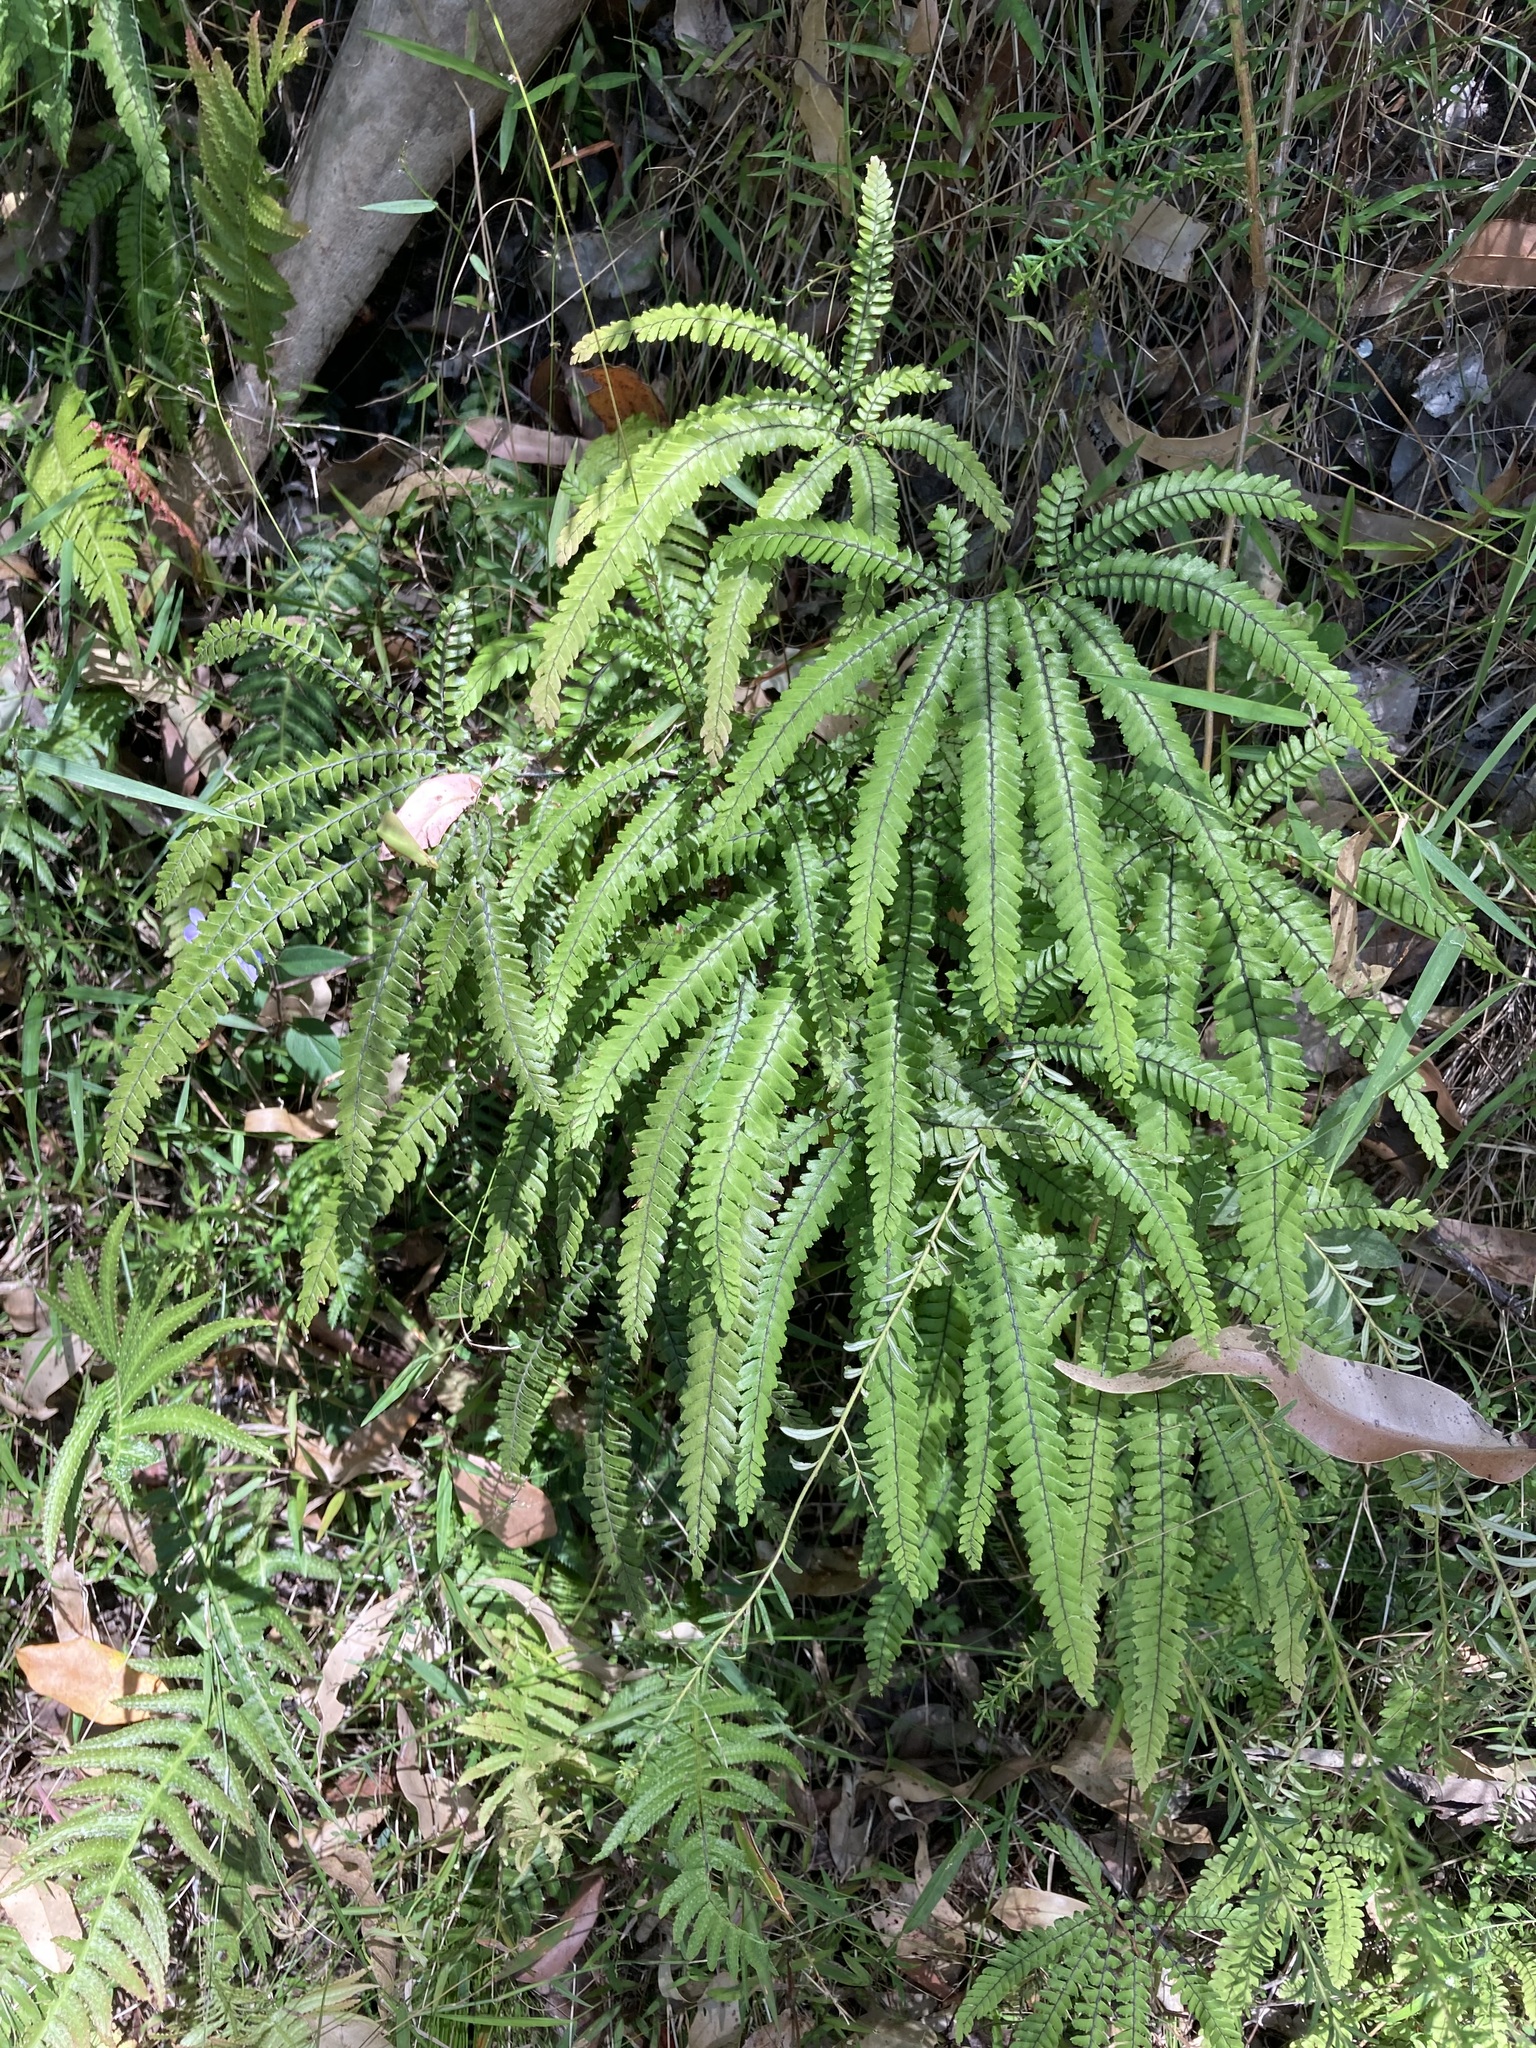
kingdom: Plantae
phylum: Tracheophyta
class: Polypodiopsida
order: Polypodiales
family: Pteridaceae
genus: Adiantum
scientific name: Adiantum hispidulum
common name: Rough maidenhair
